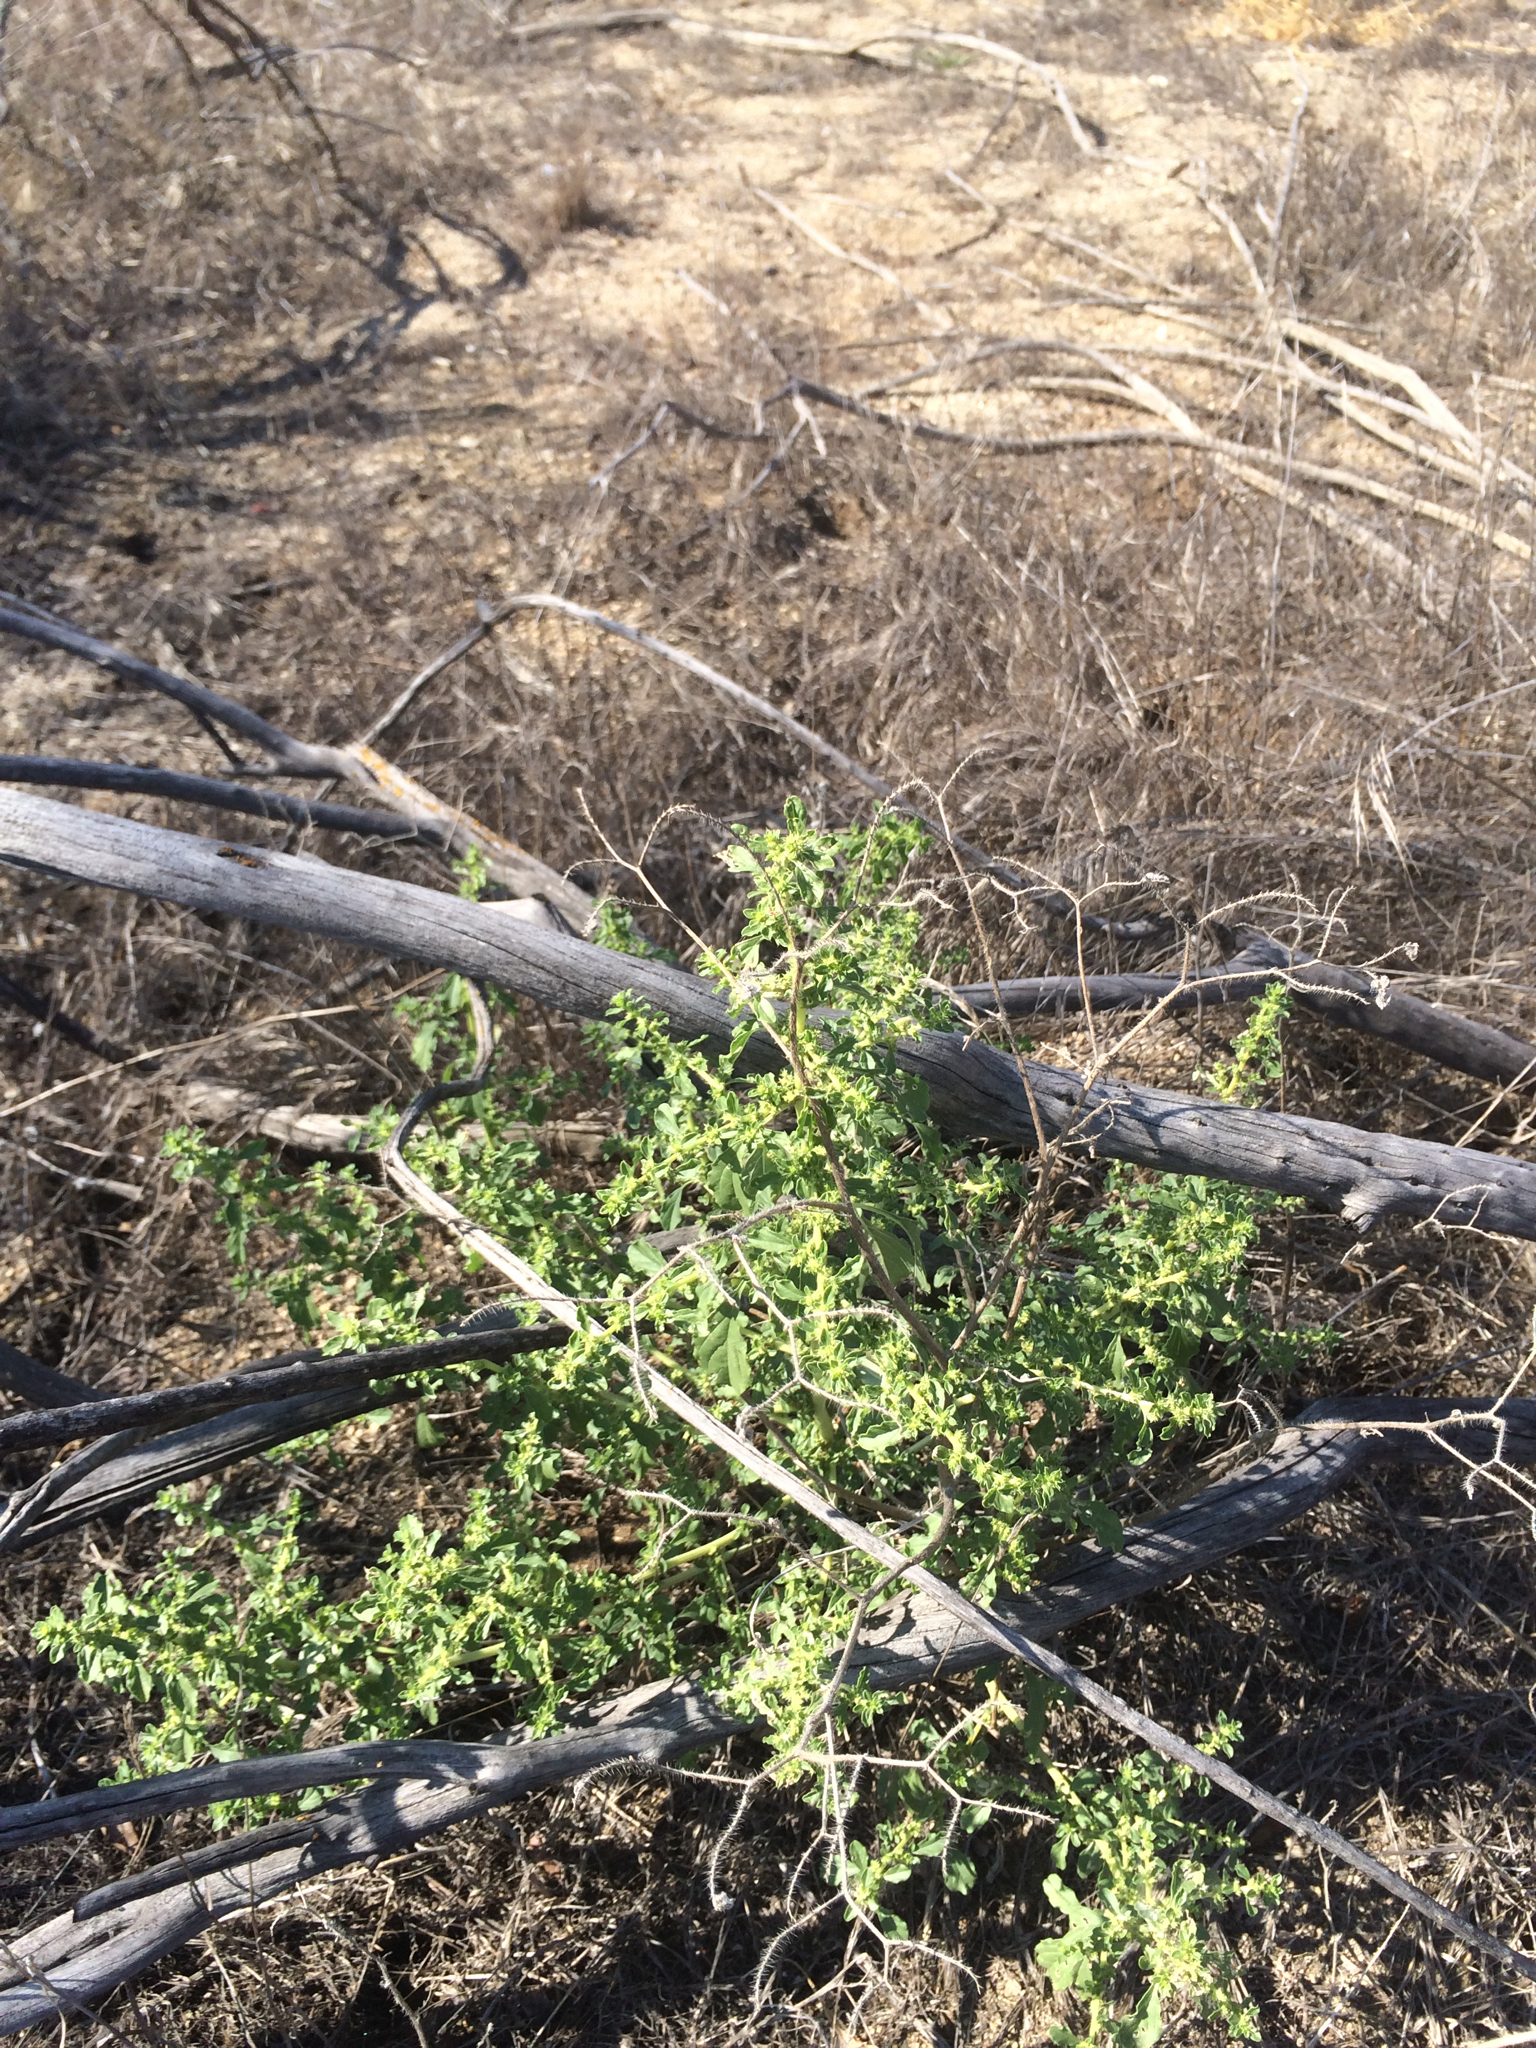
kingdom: Plantae
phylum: Tracheophyta
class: Magnoliopsida
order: Caryophyllales
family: Amaranthaceae
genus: Amaranthus
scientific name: Amaranthus albus
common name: White pigweed
